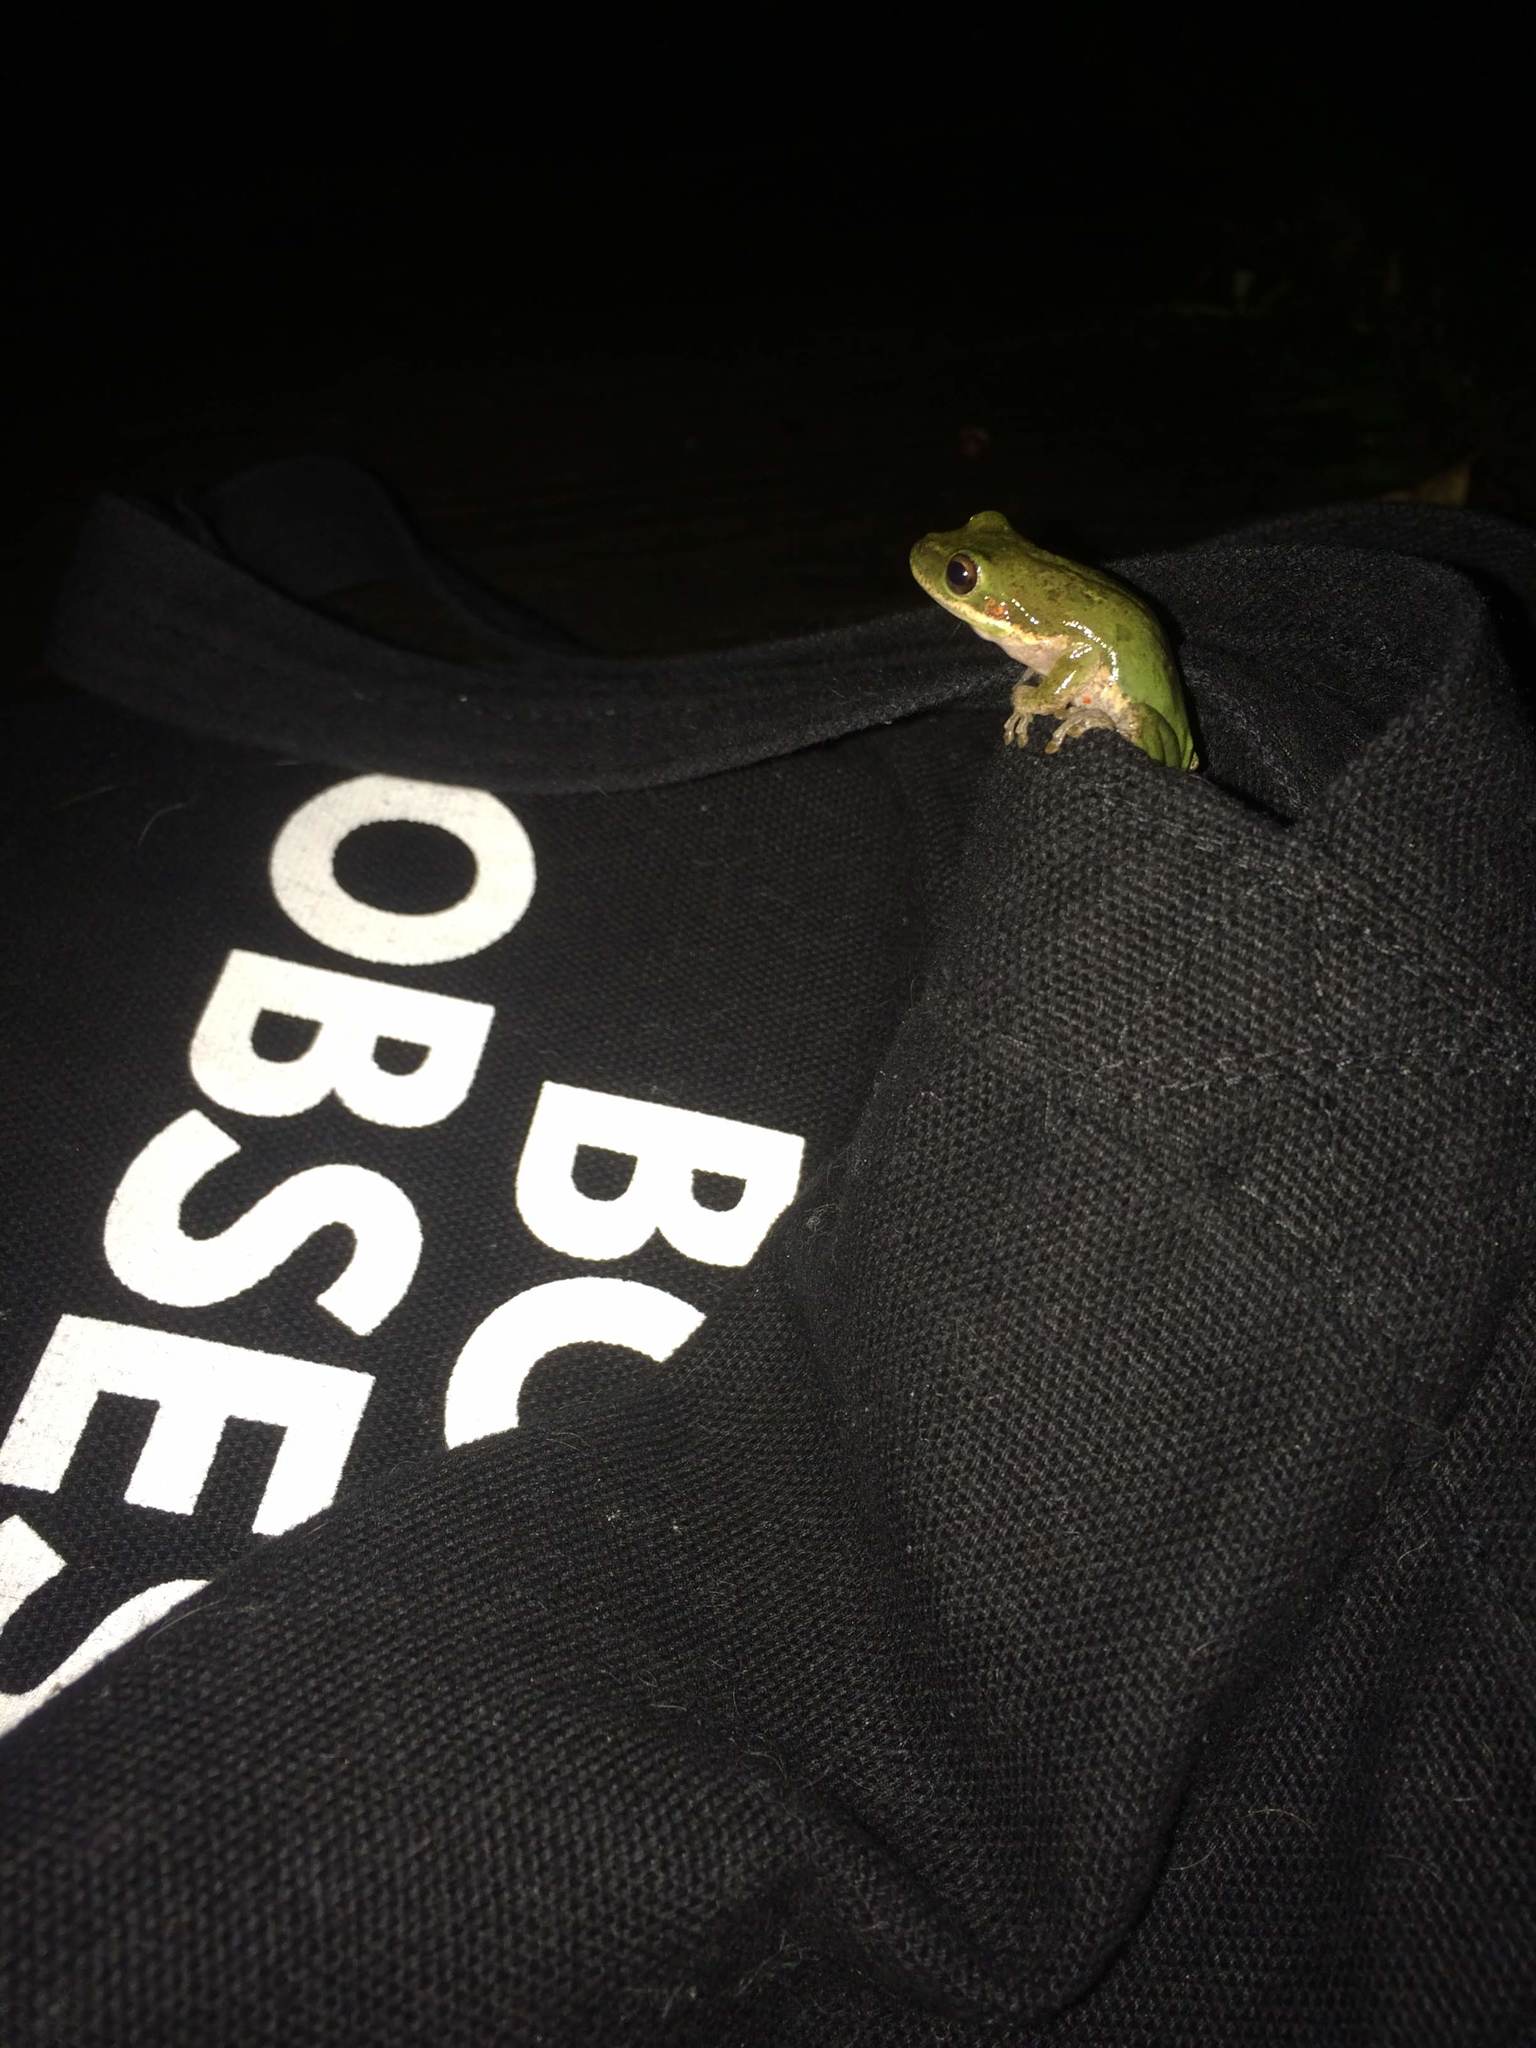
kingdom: Animalia
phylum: Chordata
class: Amphibia
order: Anura
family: Hylidae
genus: Dryophytes
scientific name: Dryophytes squirellus
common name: Squirrel treefrog
